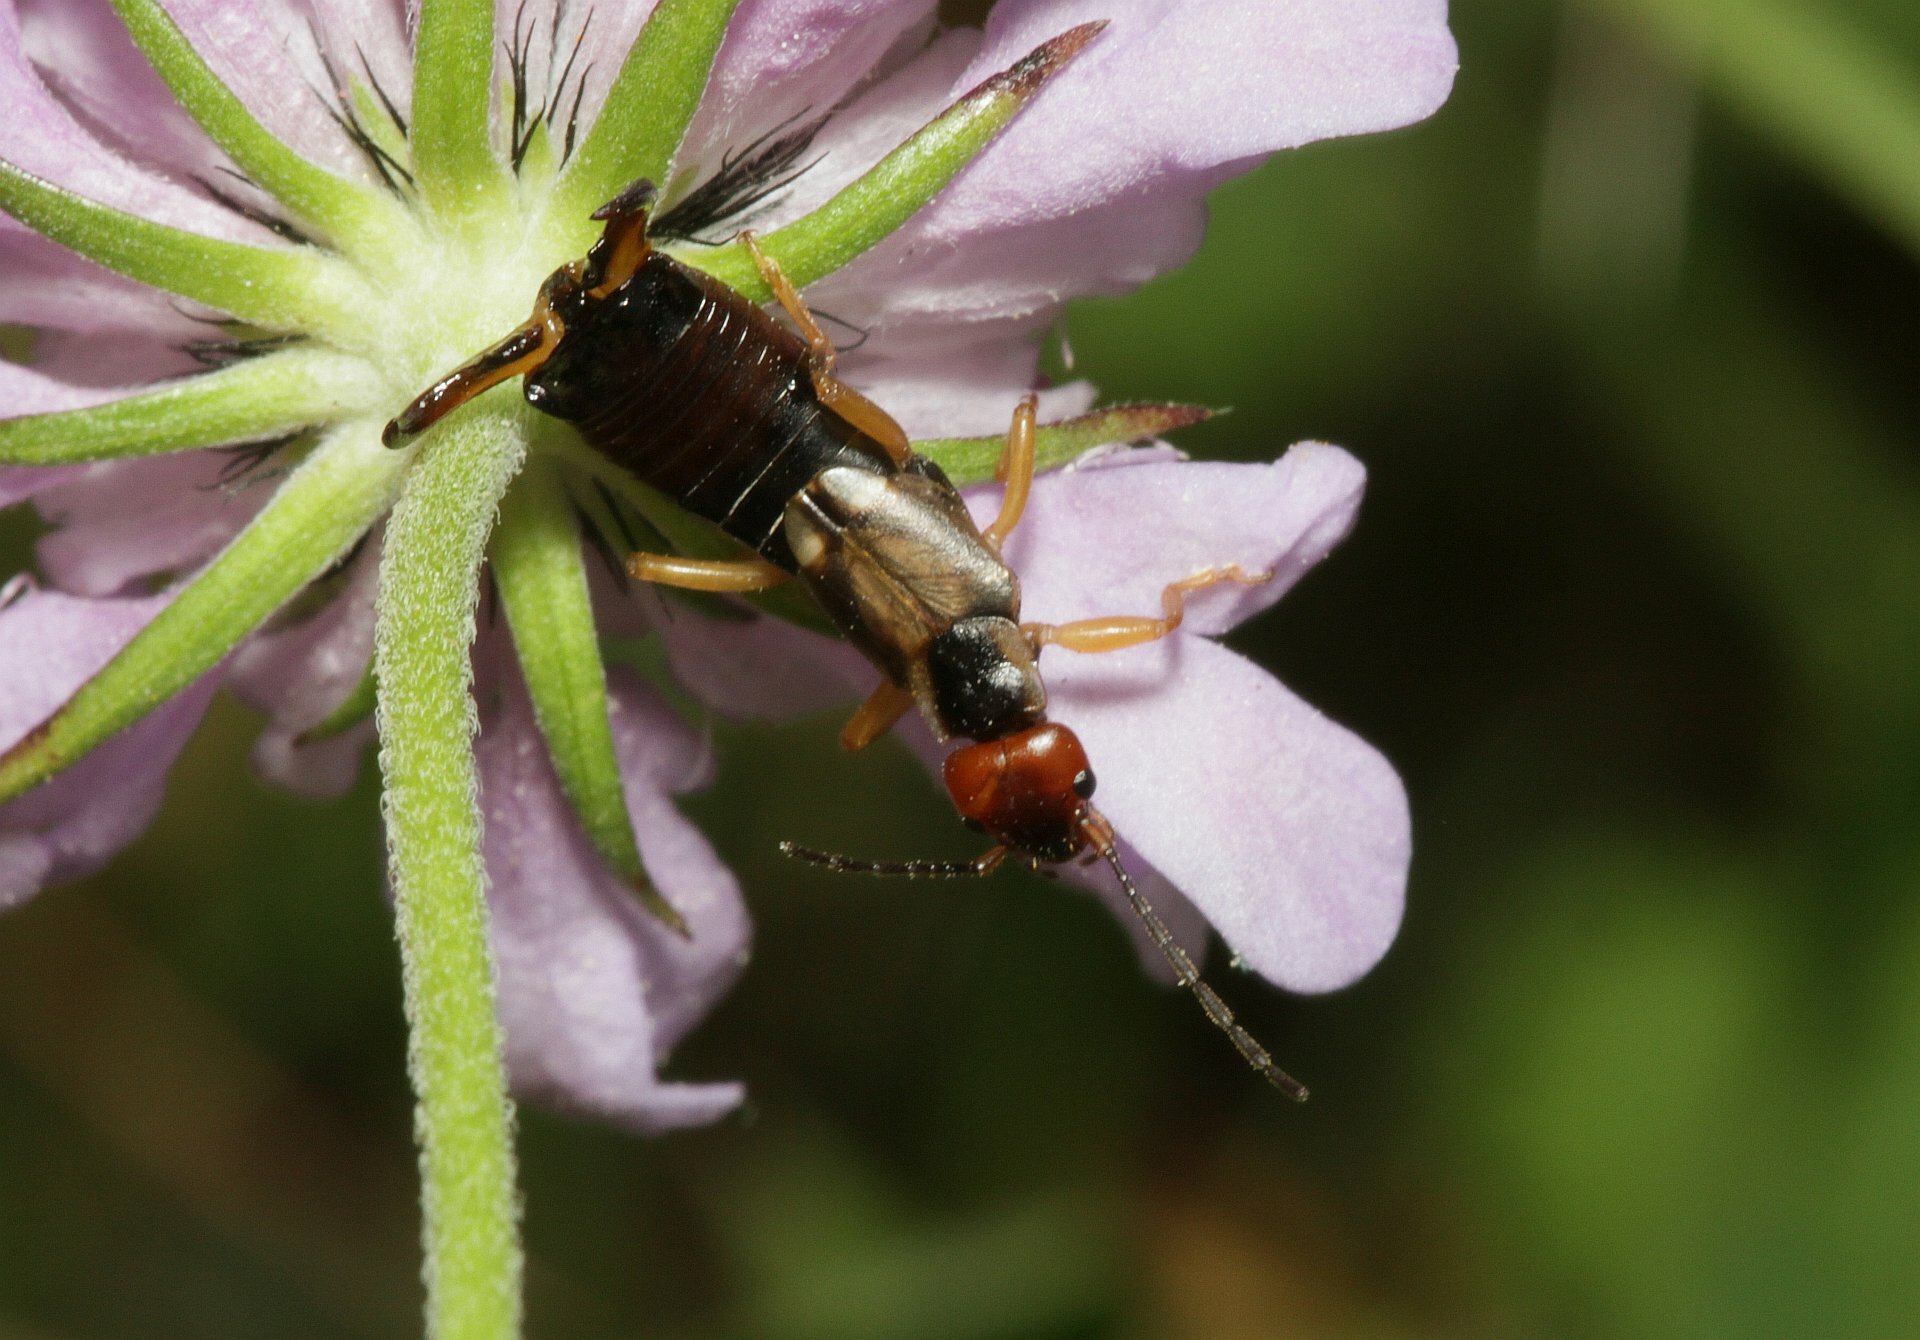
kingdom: Animalia
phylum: Arthropoda
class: Insecta
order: Dermaptera
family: Forficulidae
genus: Forficula
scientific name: Forficula
